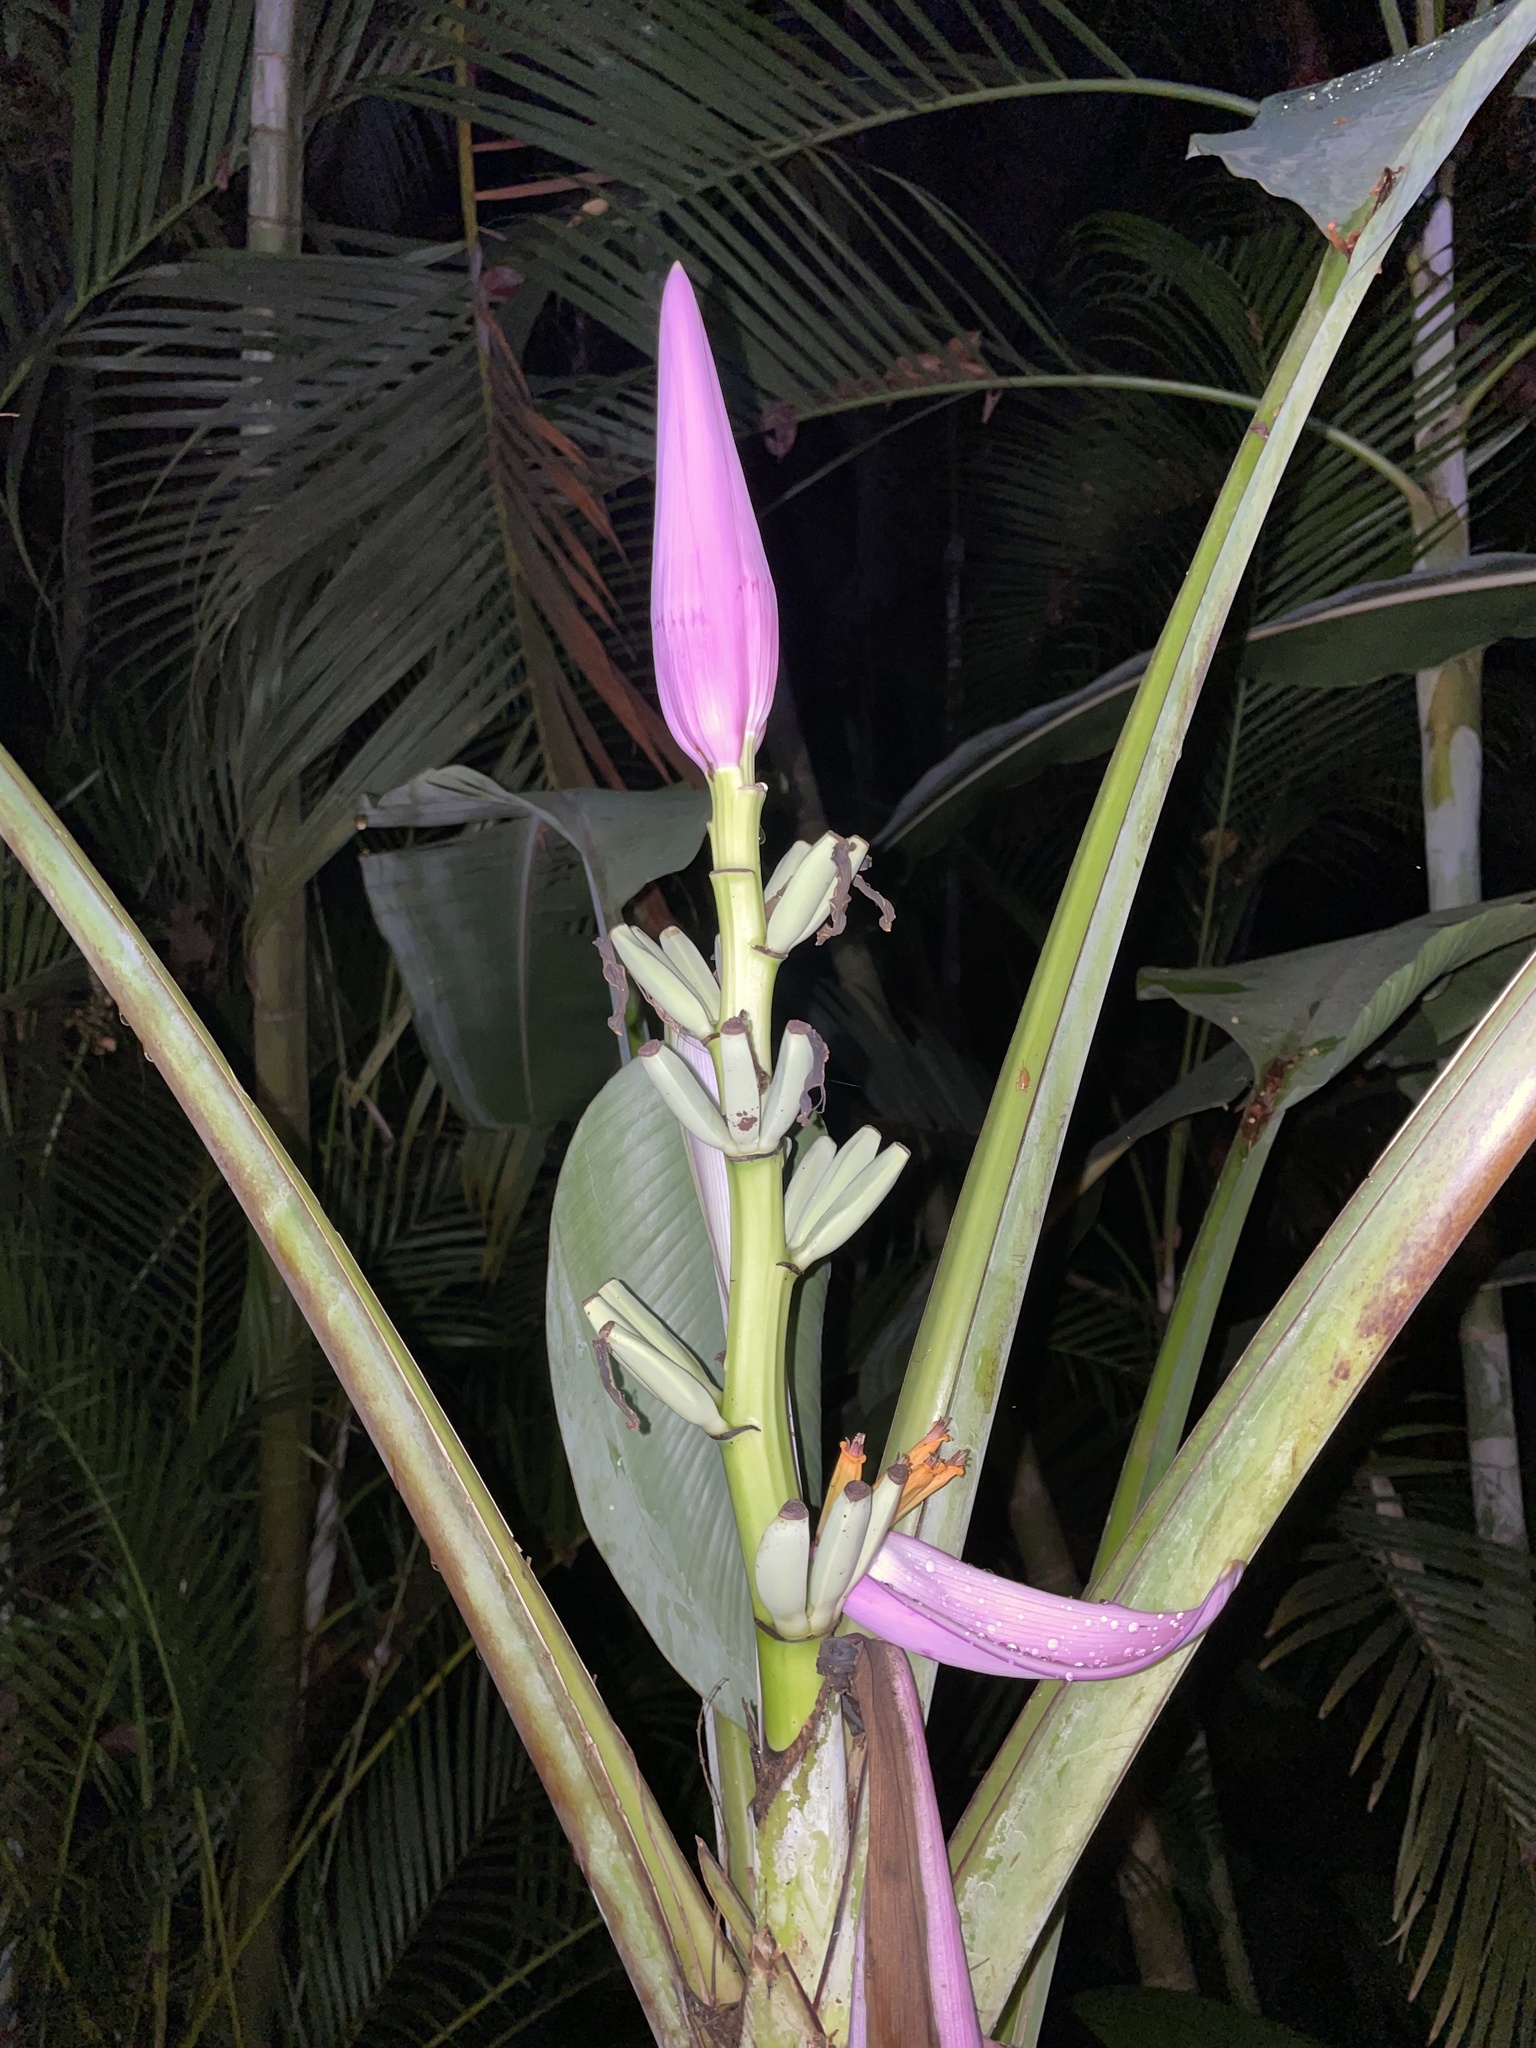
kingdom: Plantae
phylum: Tracheophyta
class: Liliopsida
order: Zingiberales
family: Musaceae
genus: Musa
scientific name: Musa ornata
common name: Flowering banana
